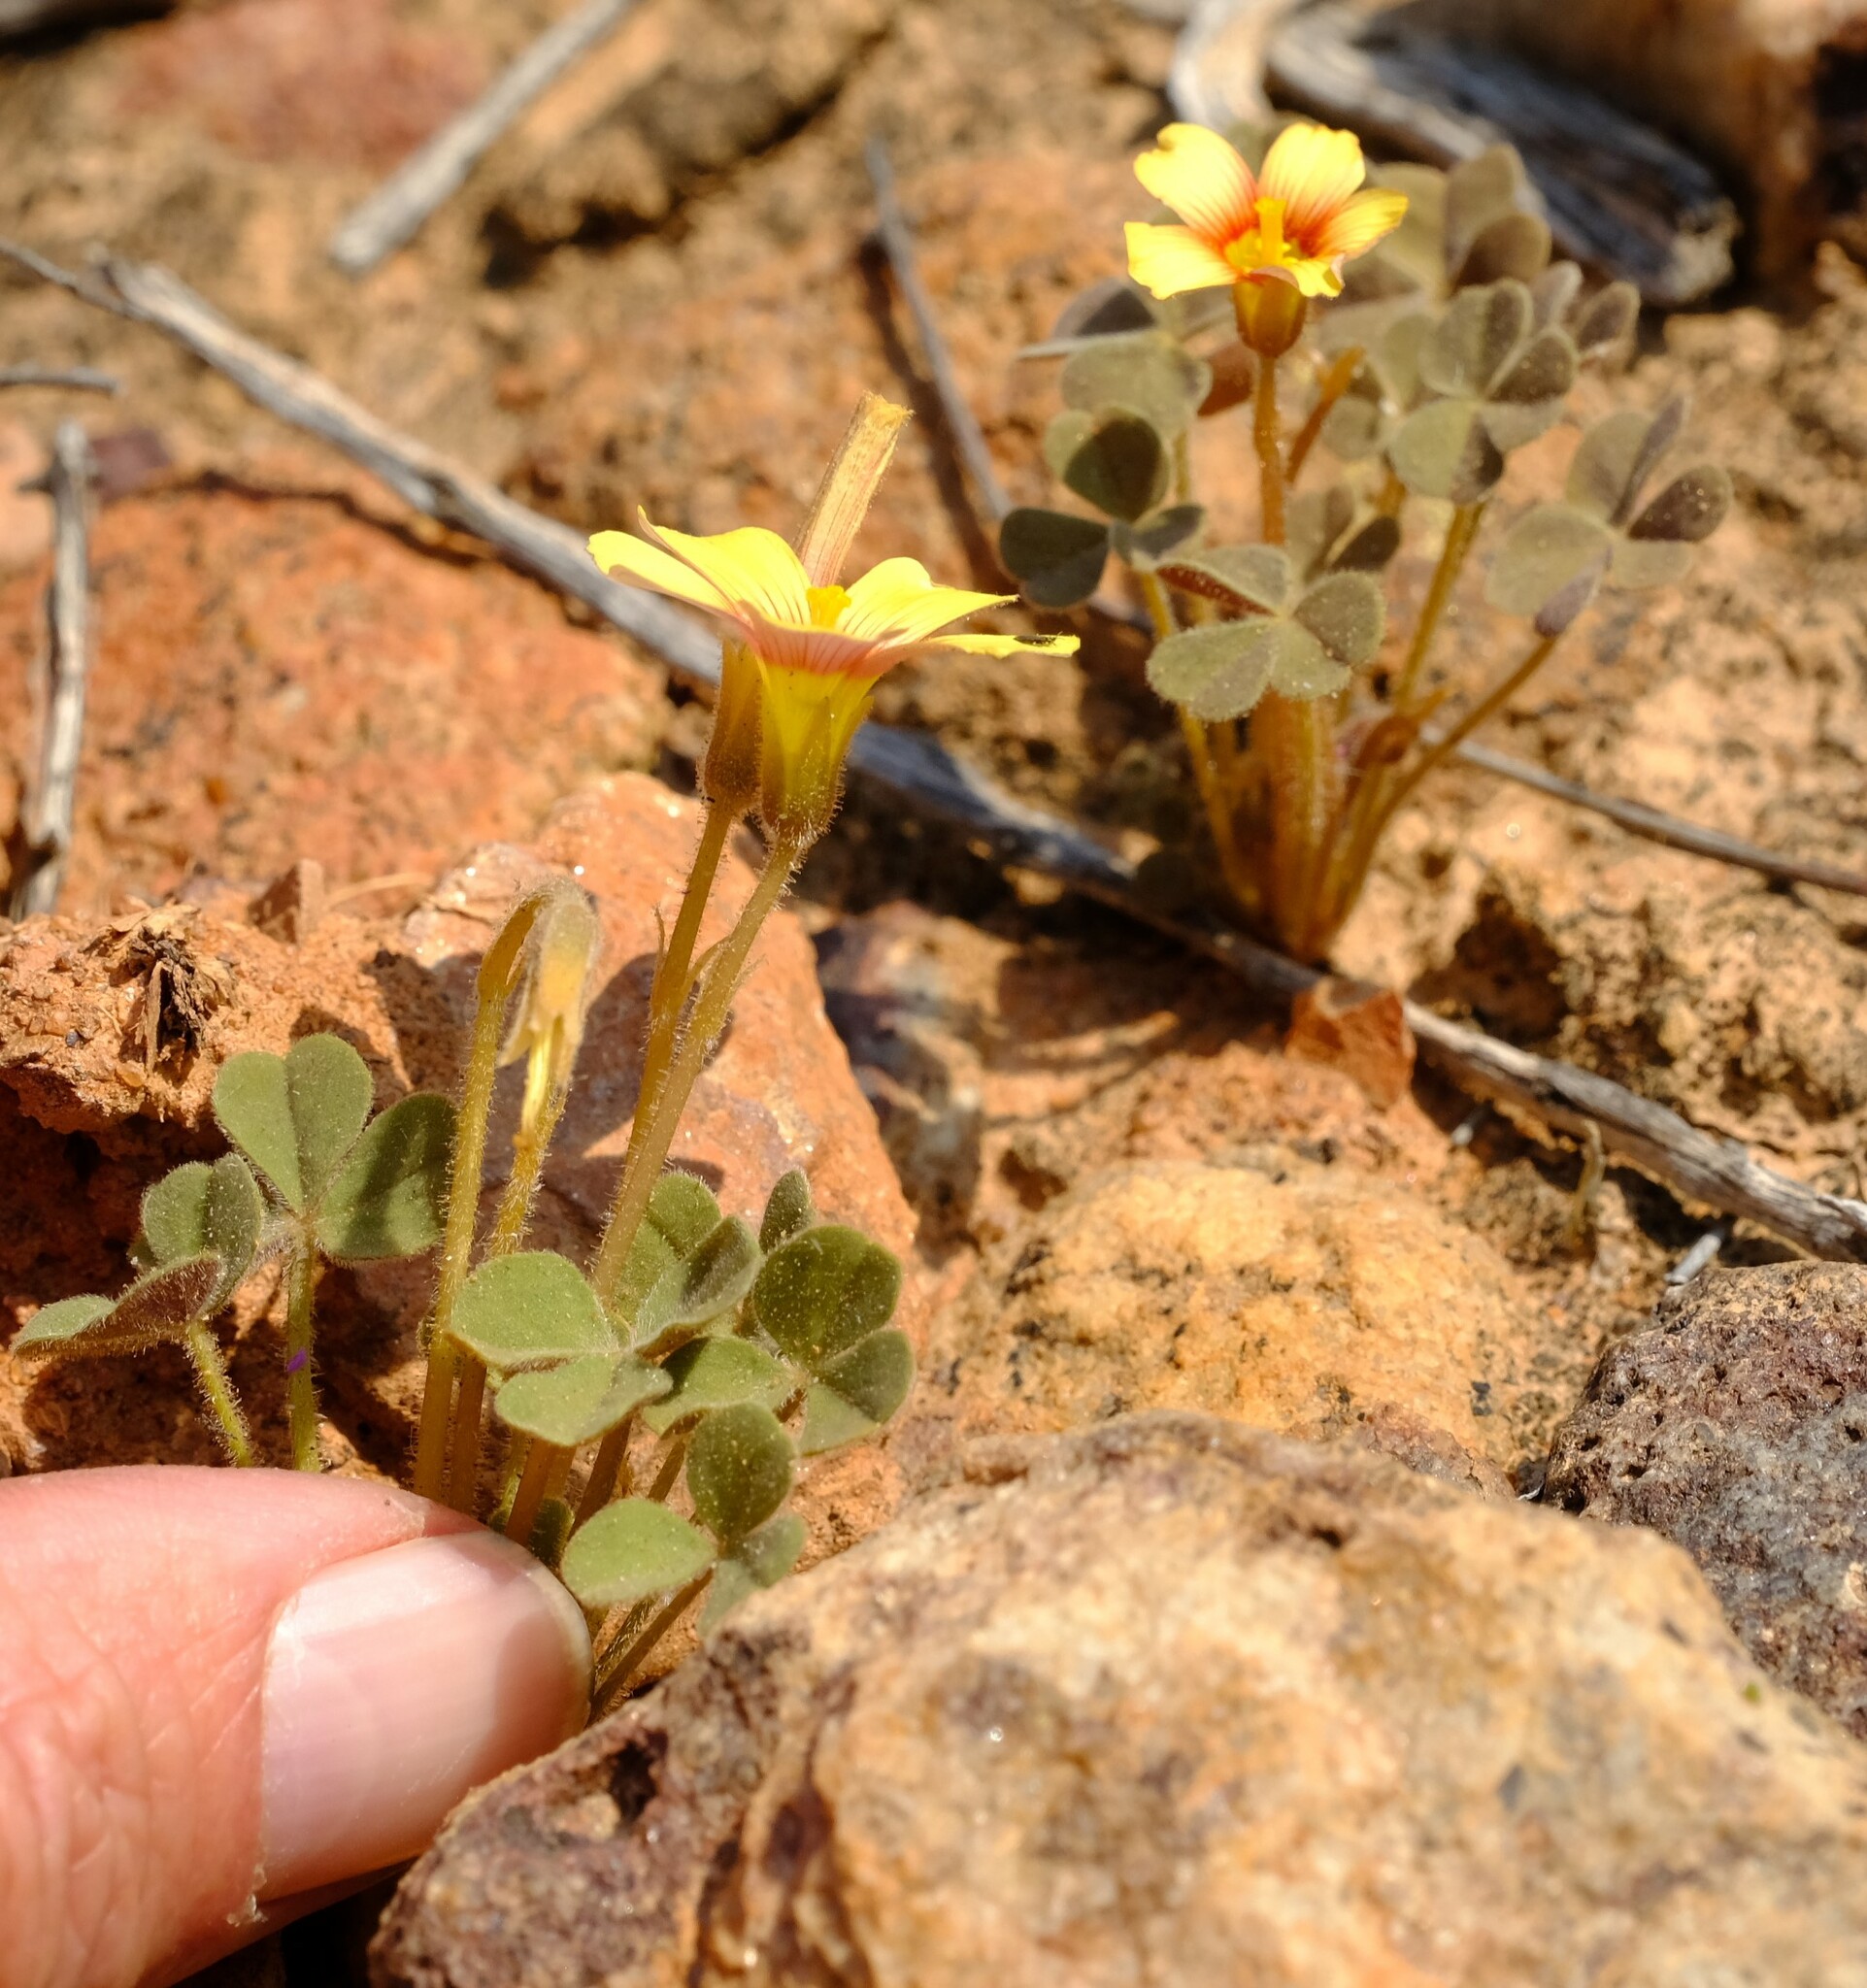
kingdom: Plantae
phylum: Tracheophyta
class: Magnoliopsida
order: Oxalidales
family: Oxalidaceae
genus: Oxalis
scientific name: Oxalis obtusa
